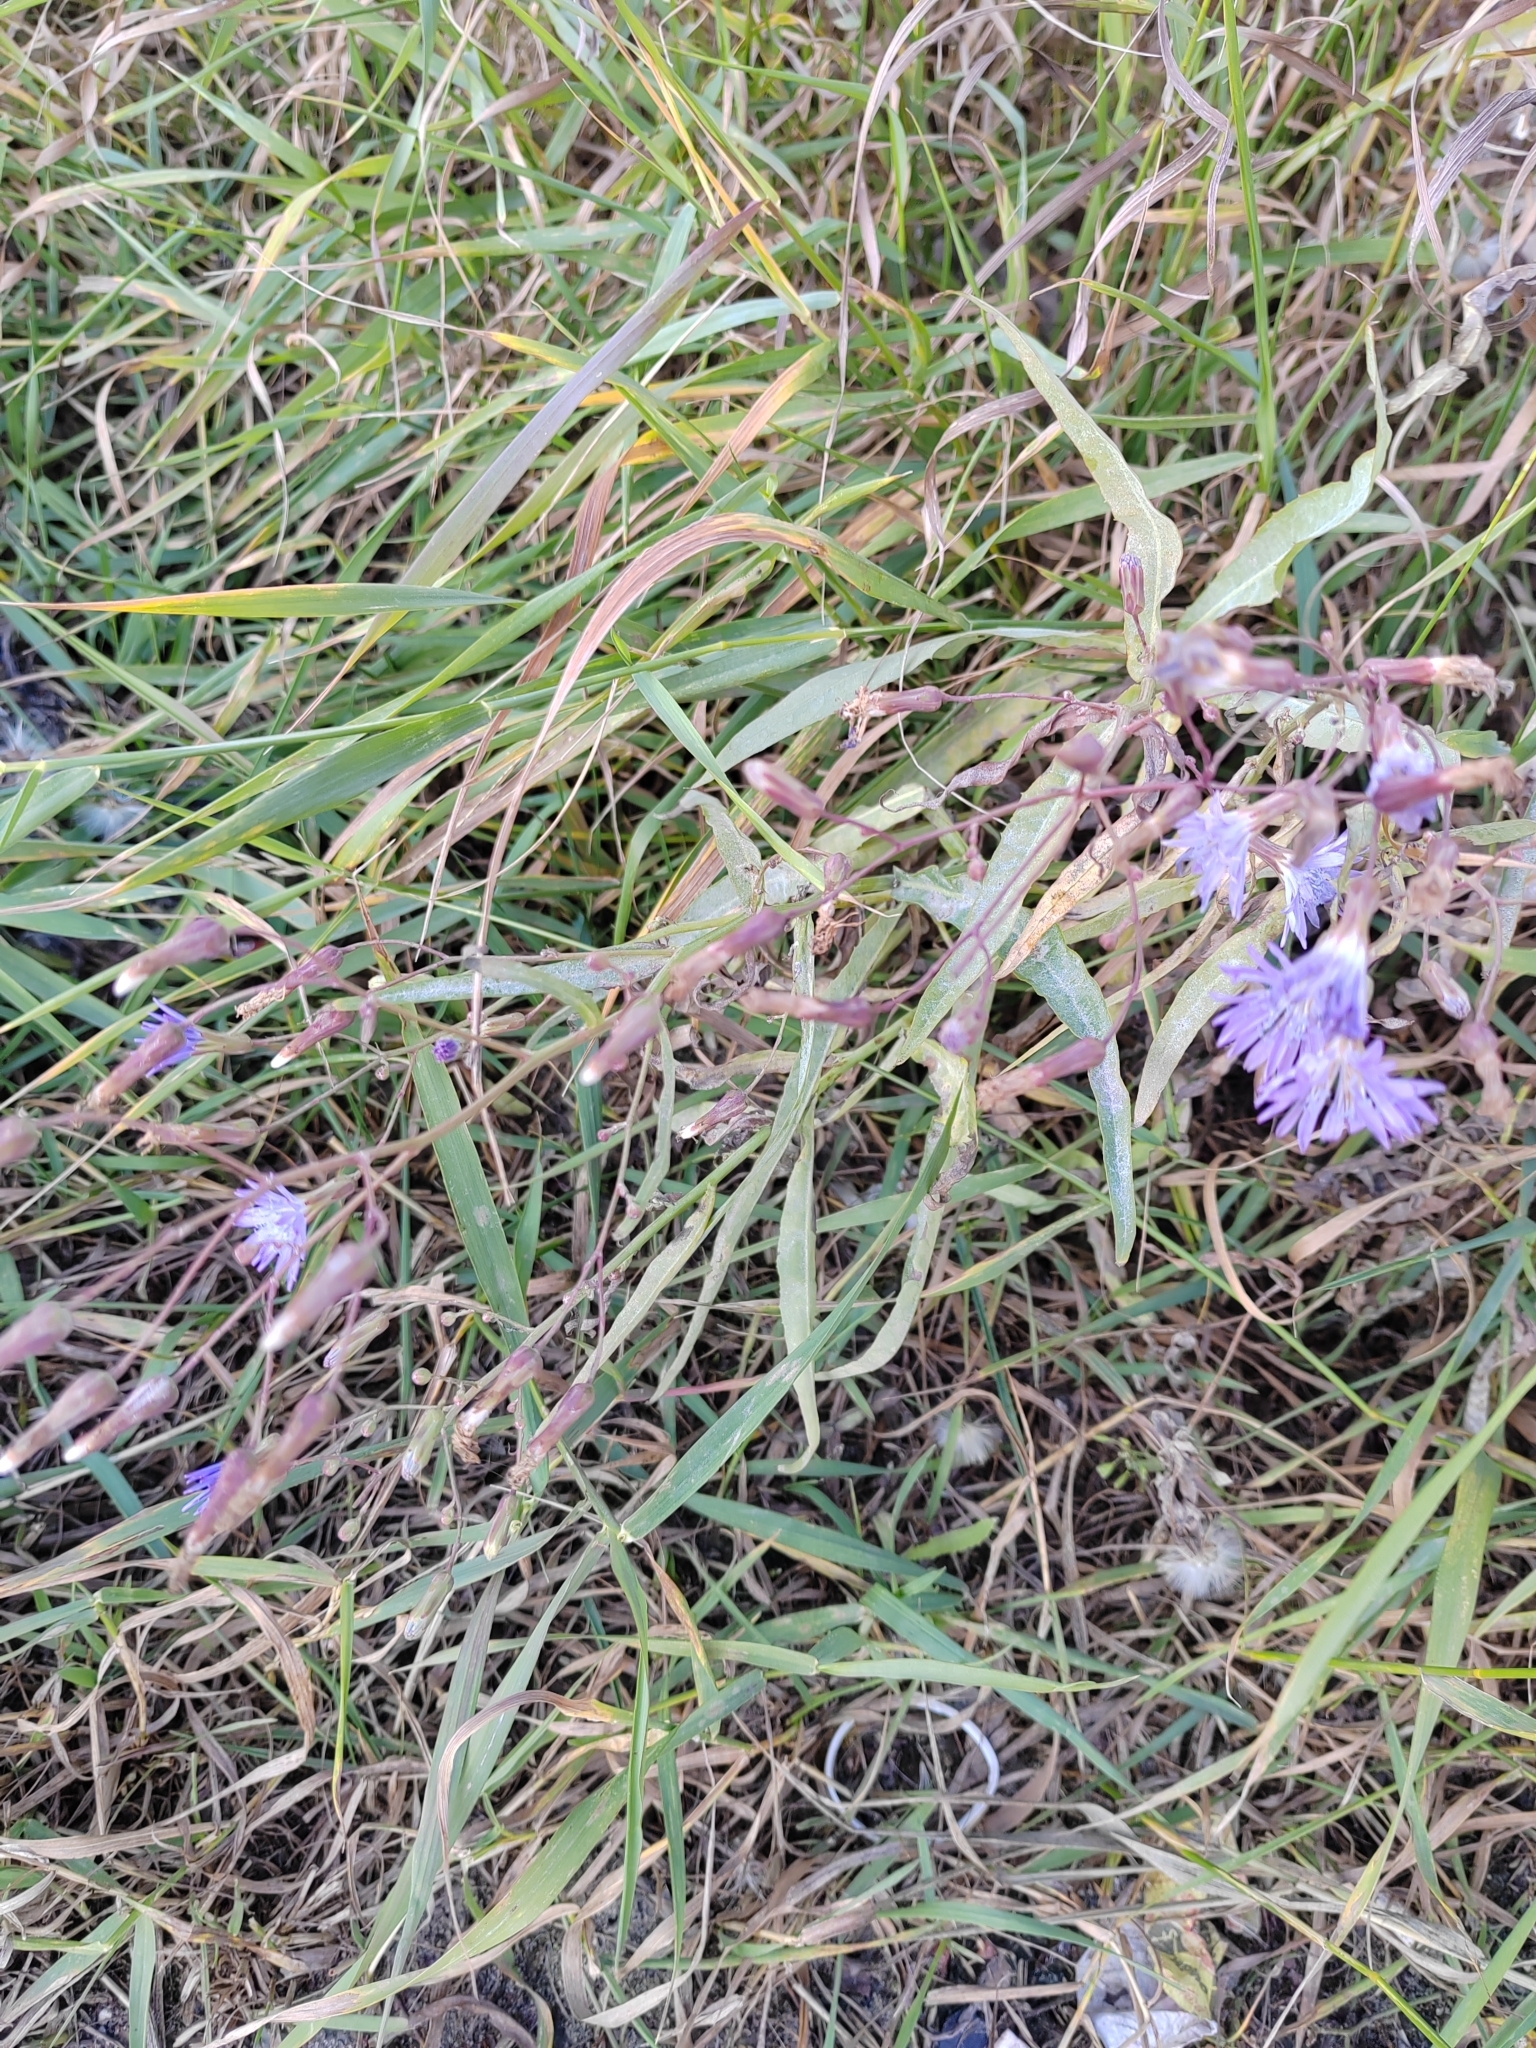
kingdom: Plantae
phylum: Tracheophyta
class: Magnoliopsida
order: Asterales
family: Asteraceae
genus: Lactuca
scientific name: Lactuca sibirica
